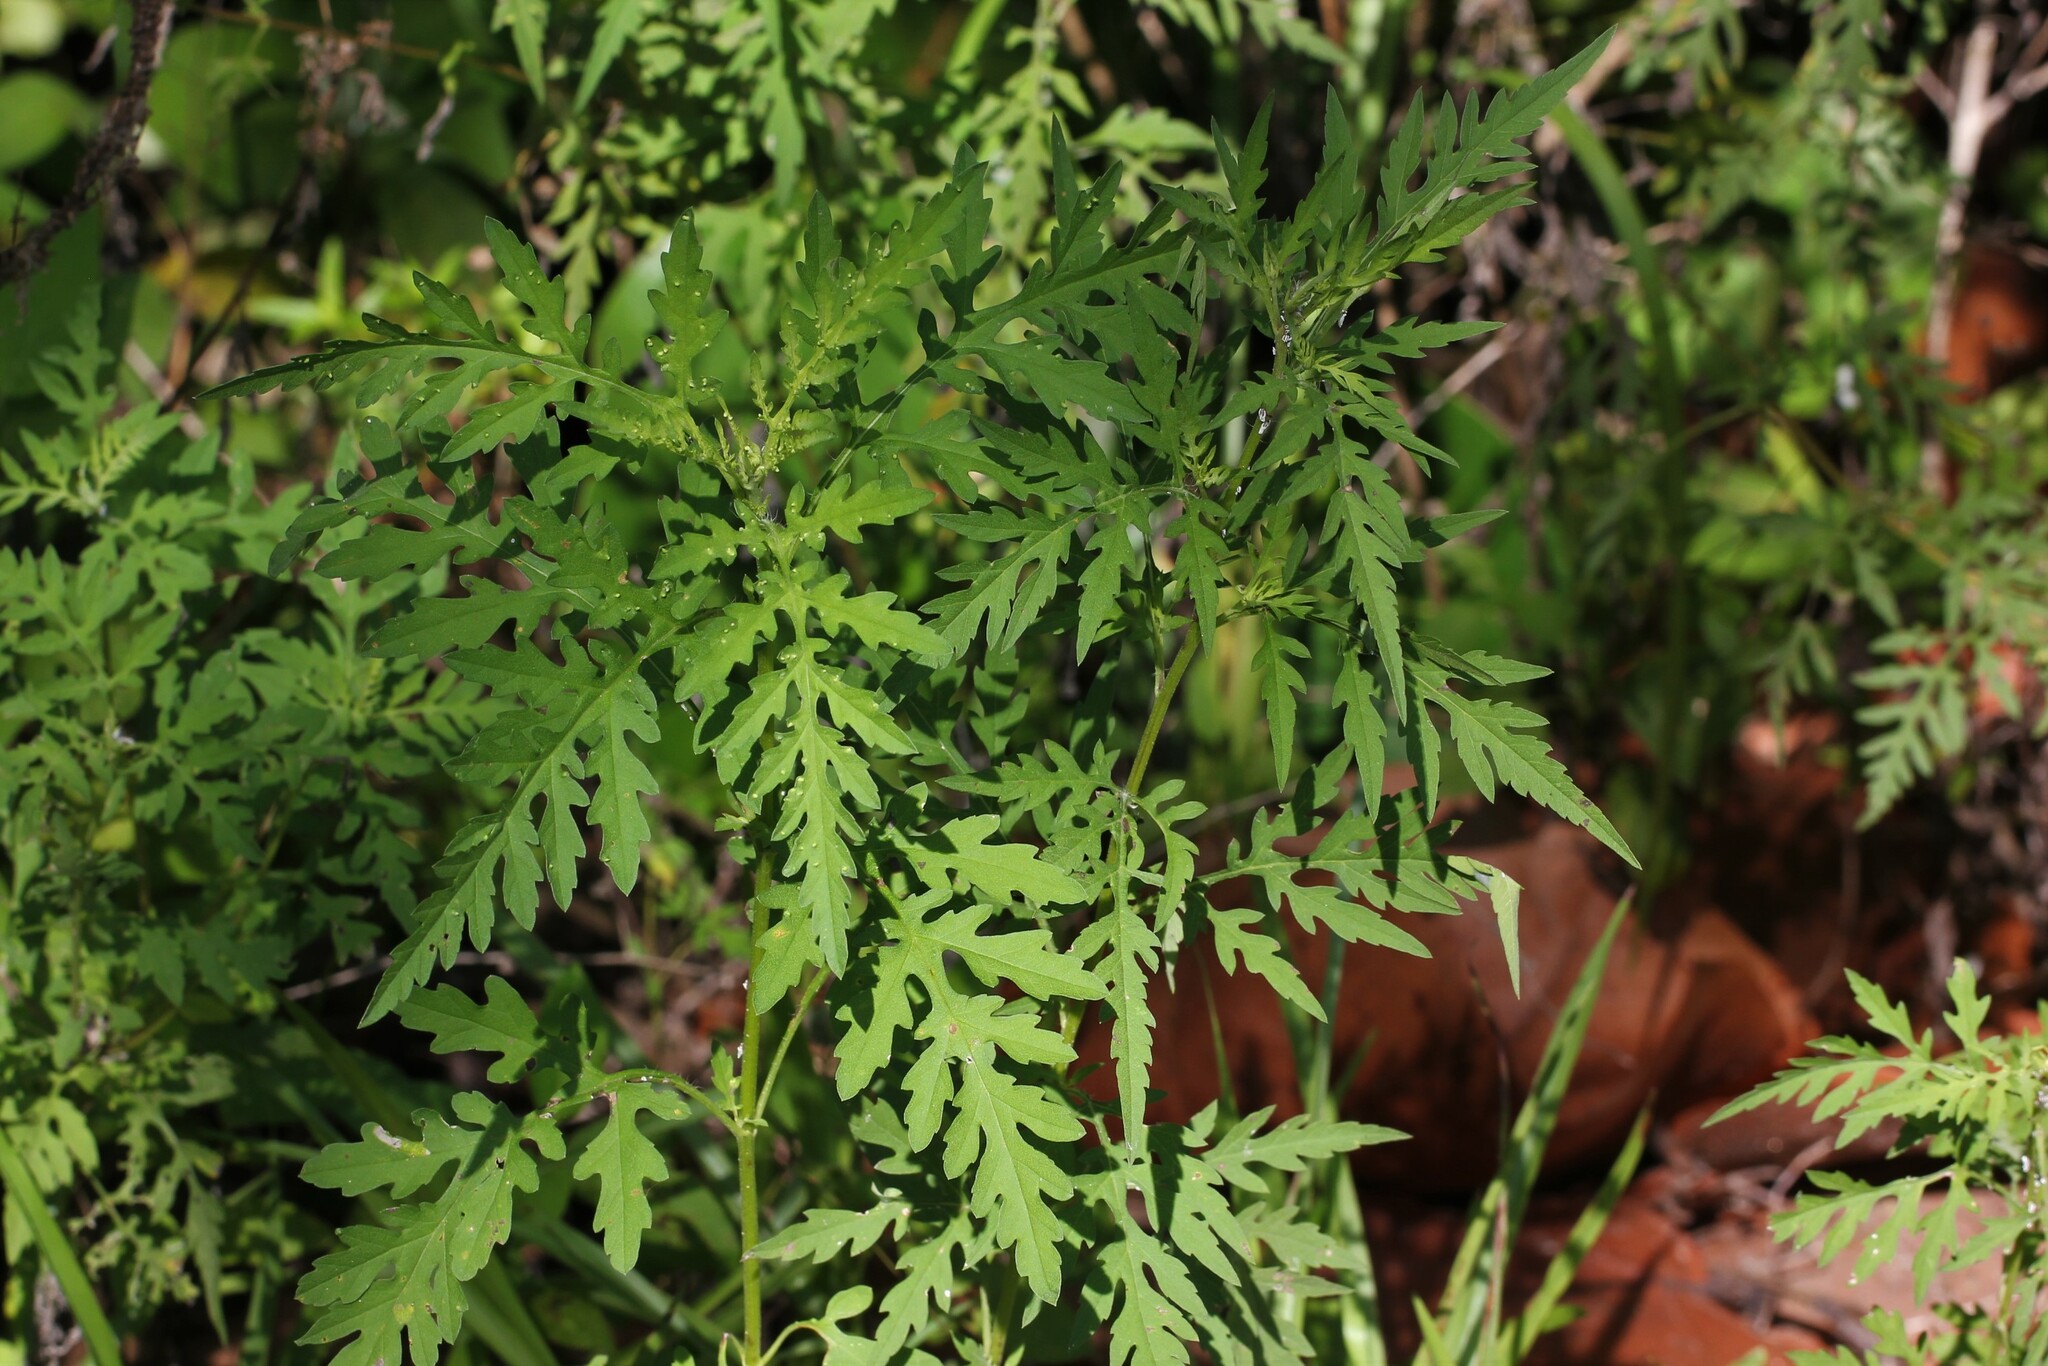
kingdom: Plantae
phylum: Tracheophyta
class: Magnoliopsida
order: Asterales
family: Asteraceae
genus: Ambrosia
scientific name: Ambrosia artemisiifolia
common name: Annual ragweed
